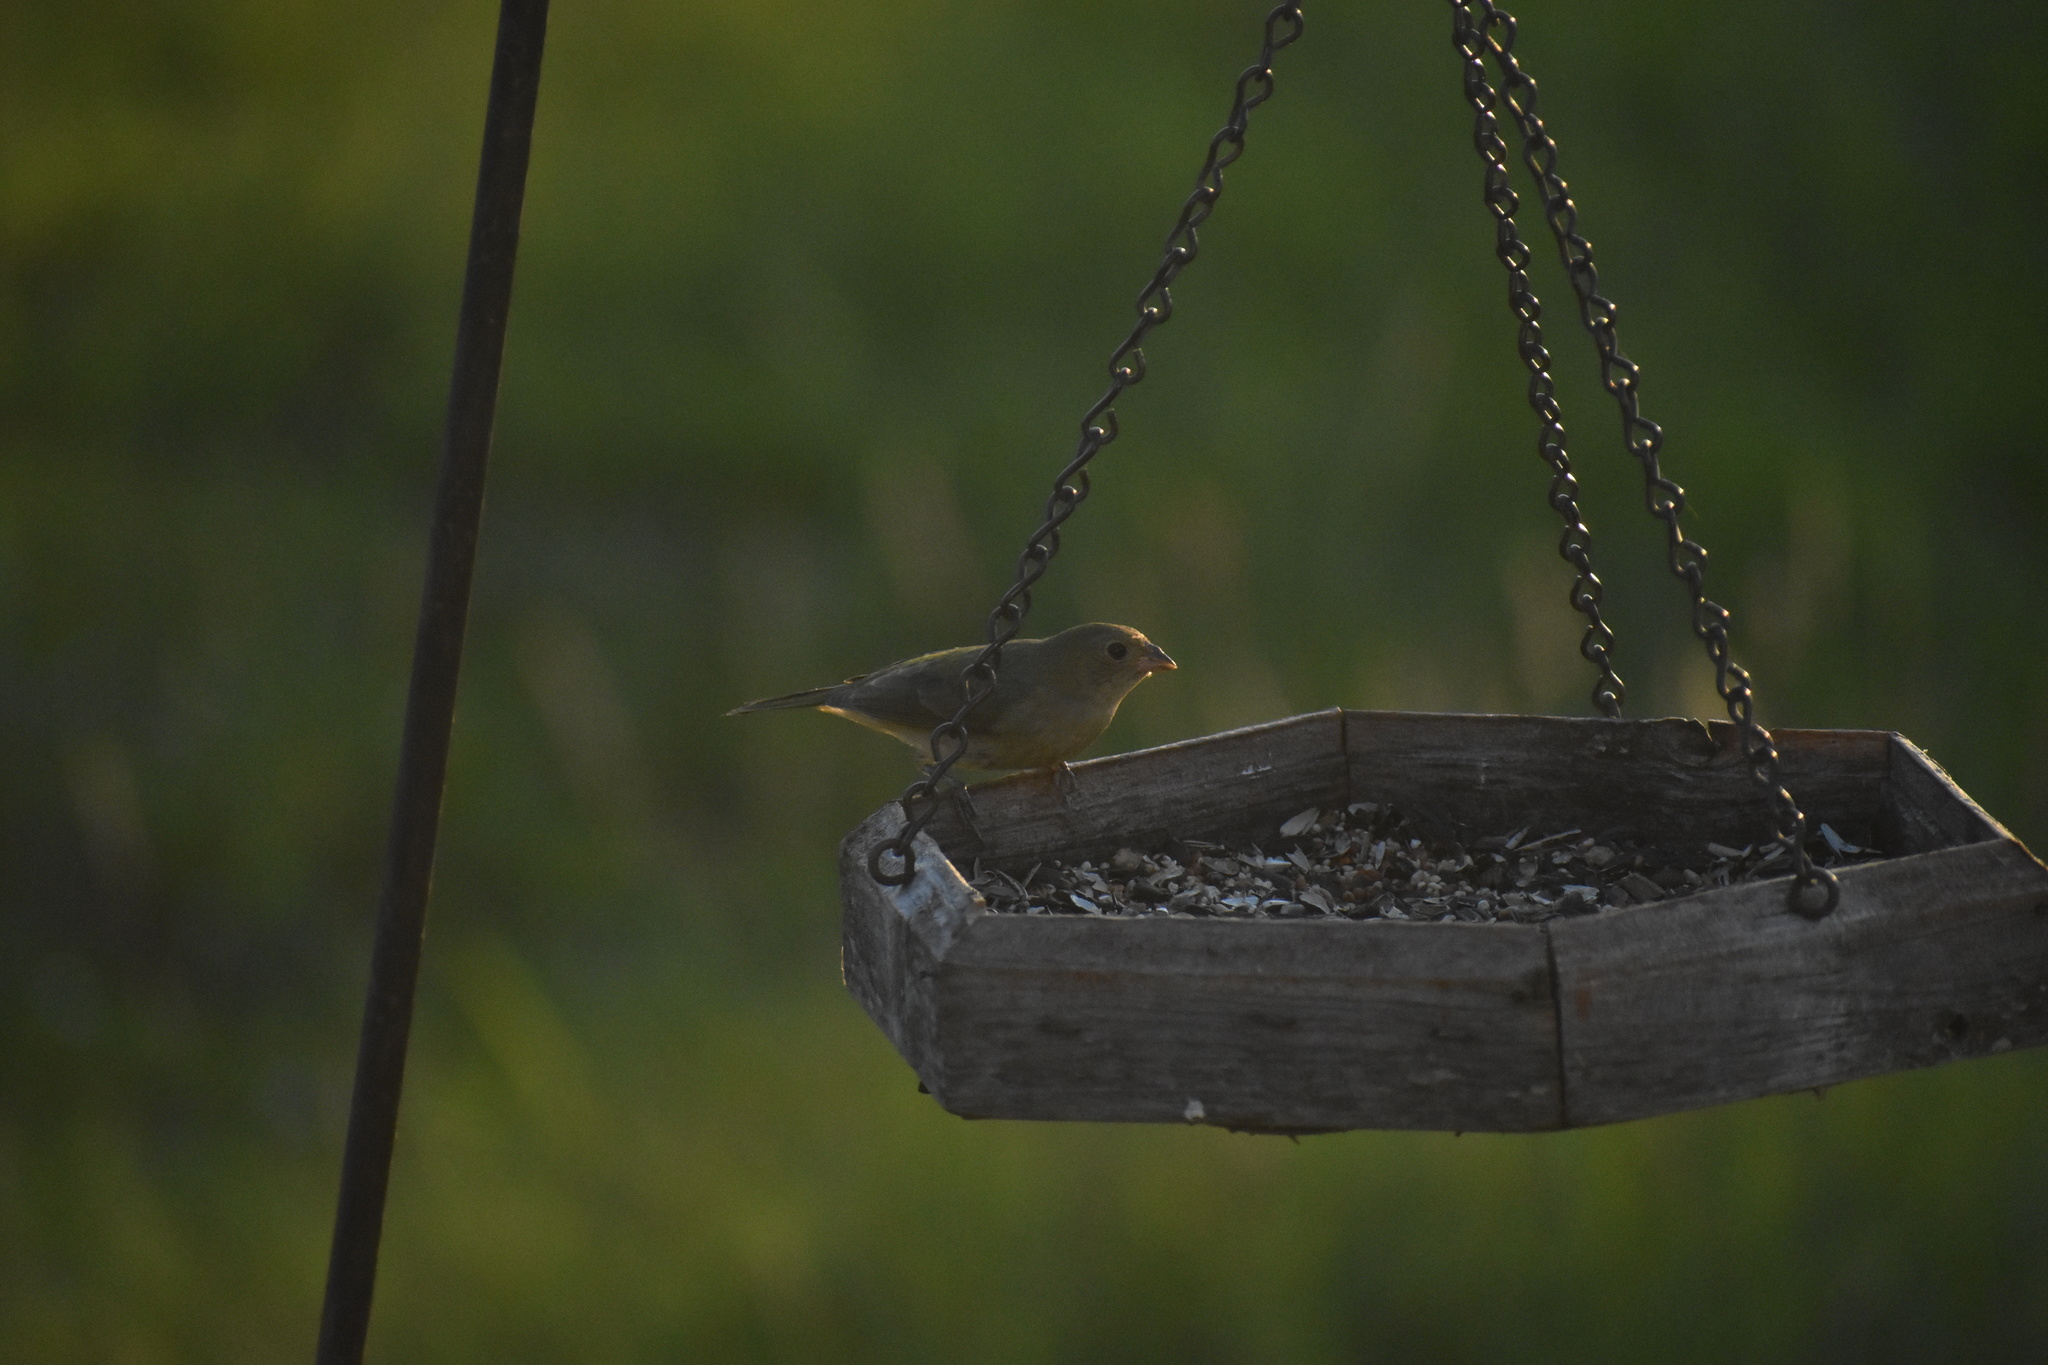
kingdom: Animalia
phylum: Chordata
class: Aves
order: Passeriformes
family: Cardinalidae
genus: Passerina
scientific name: Passerina ciris
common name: Painted bunting
